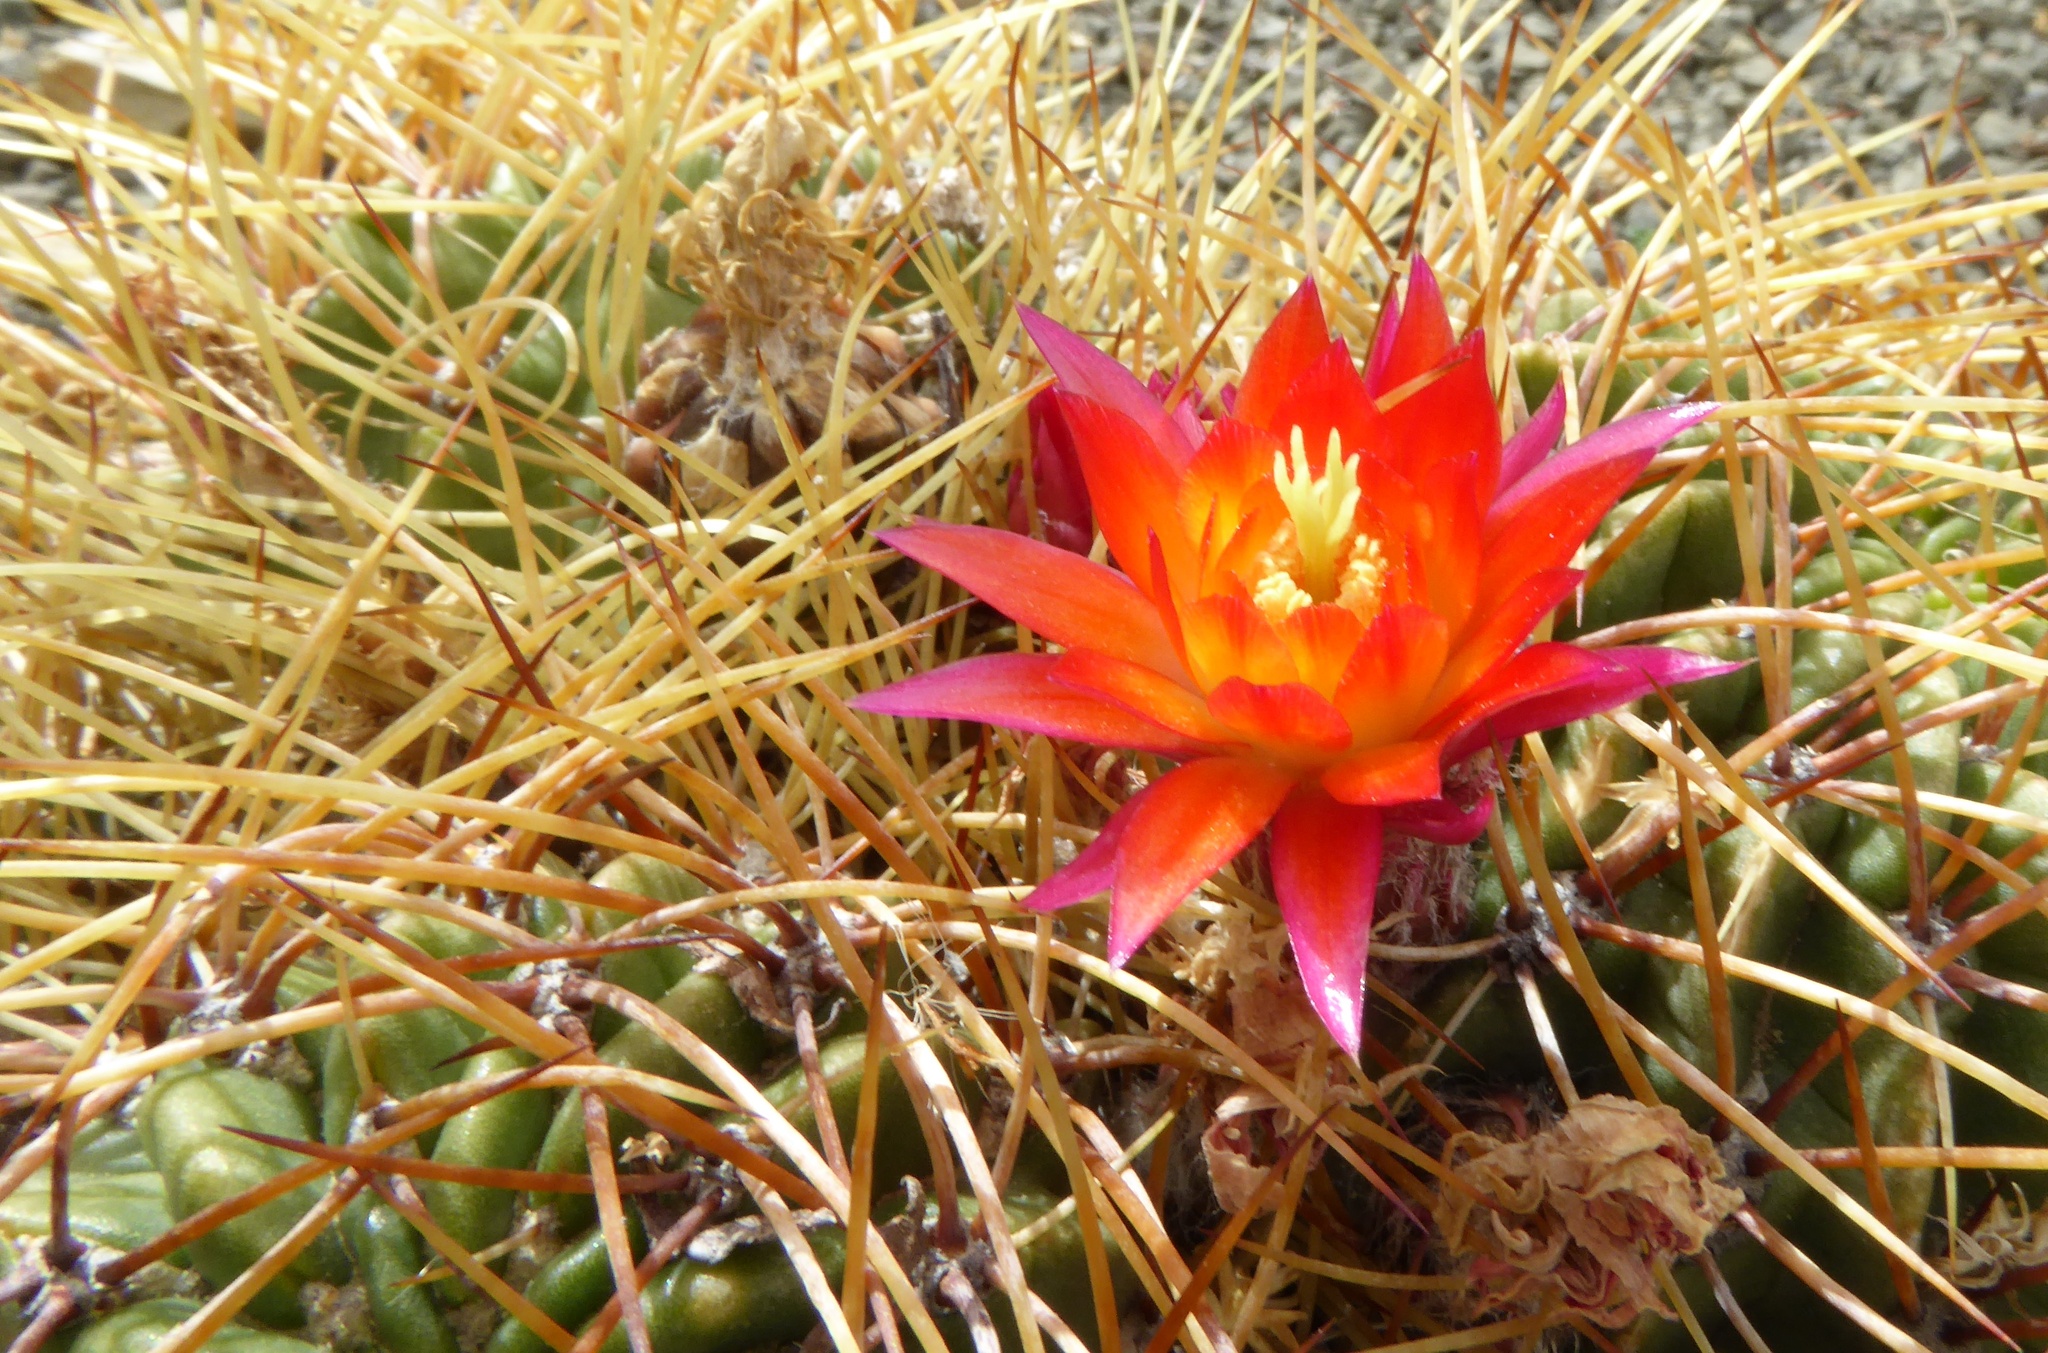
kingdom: Plantae
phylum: Tracheophyta
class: Magnoliopsida
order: Caryophyllales
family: Cactaceae
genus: Lobivia
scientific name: Lobivia maximiliana
